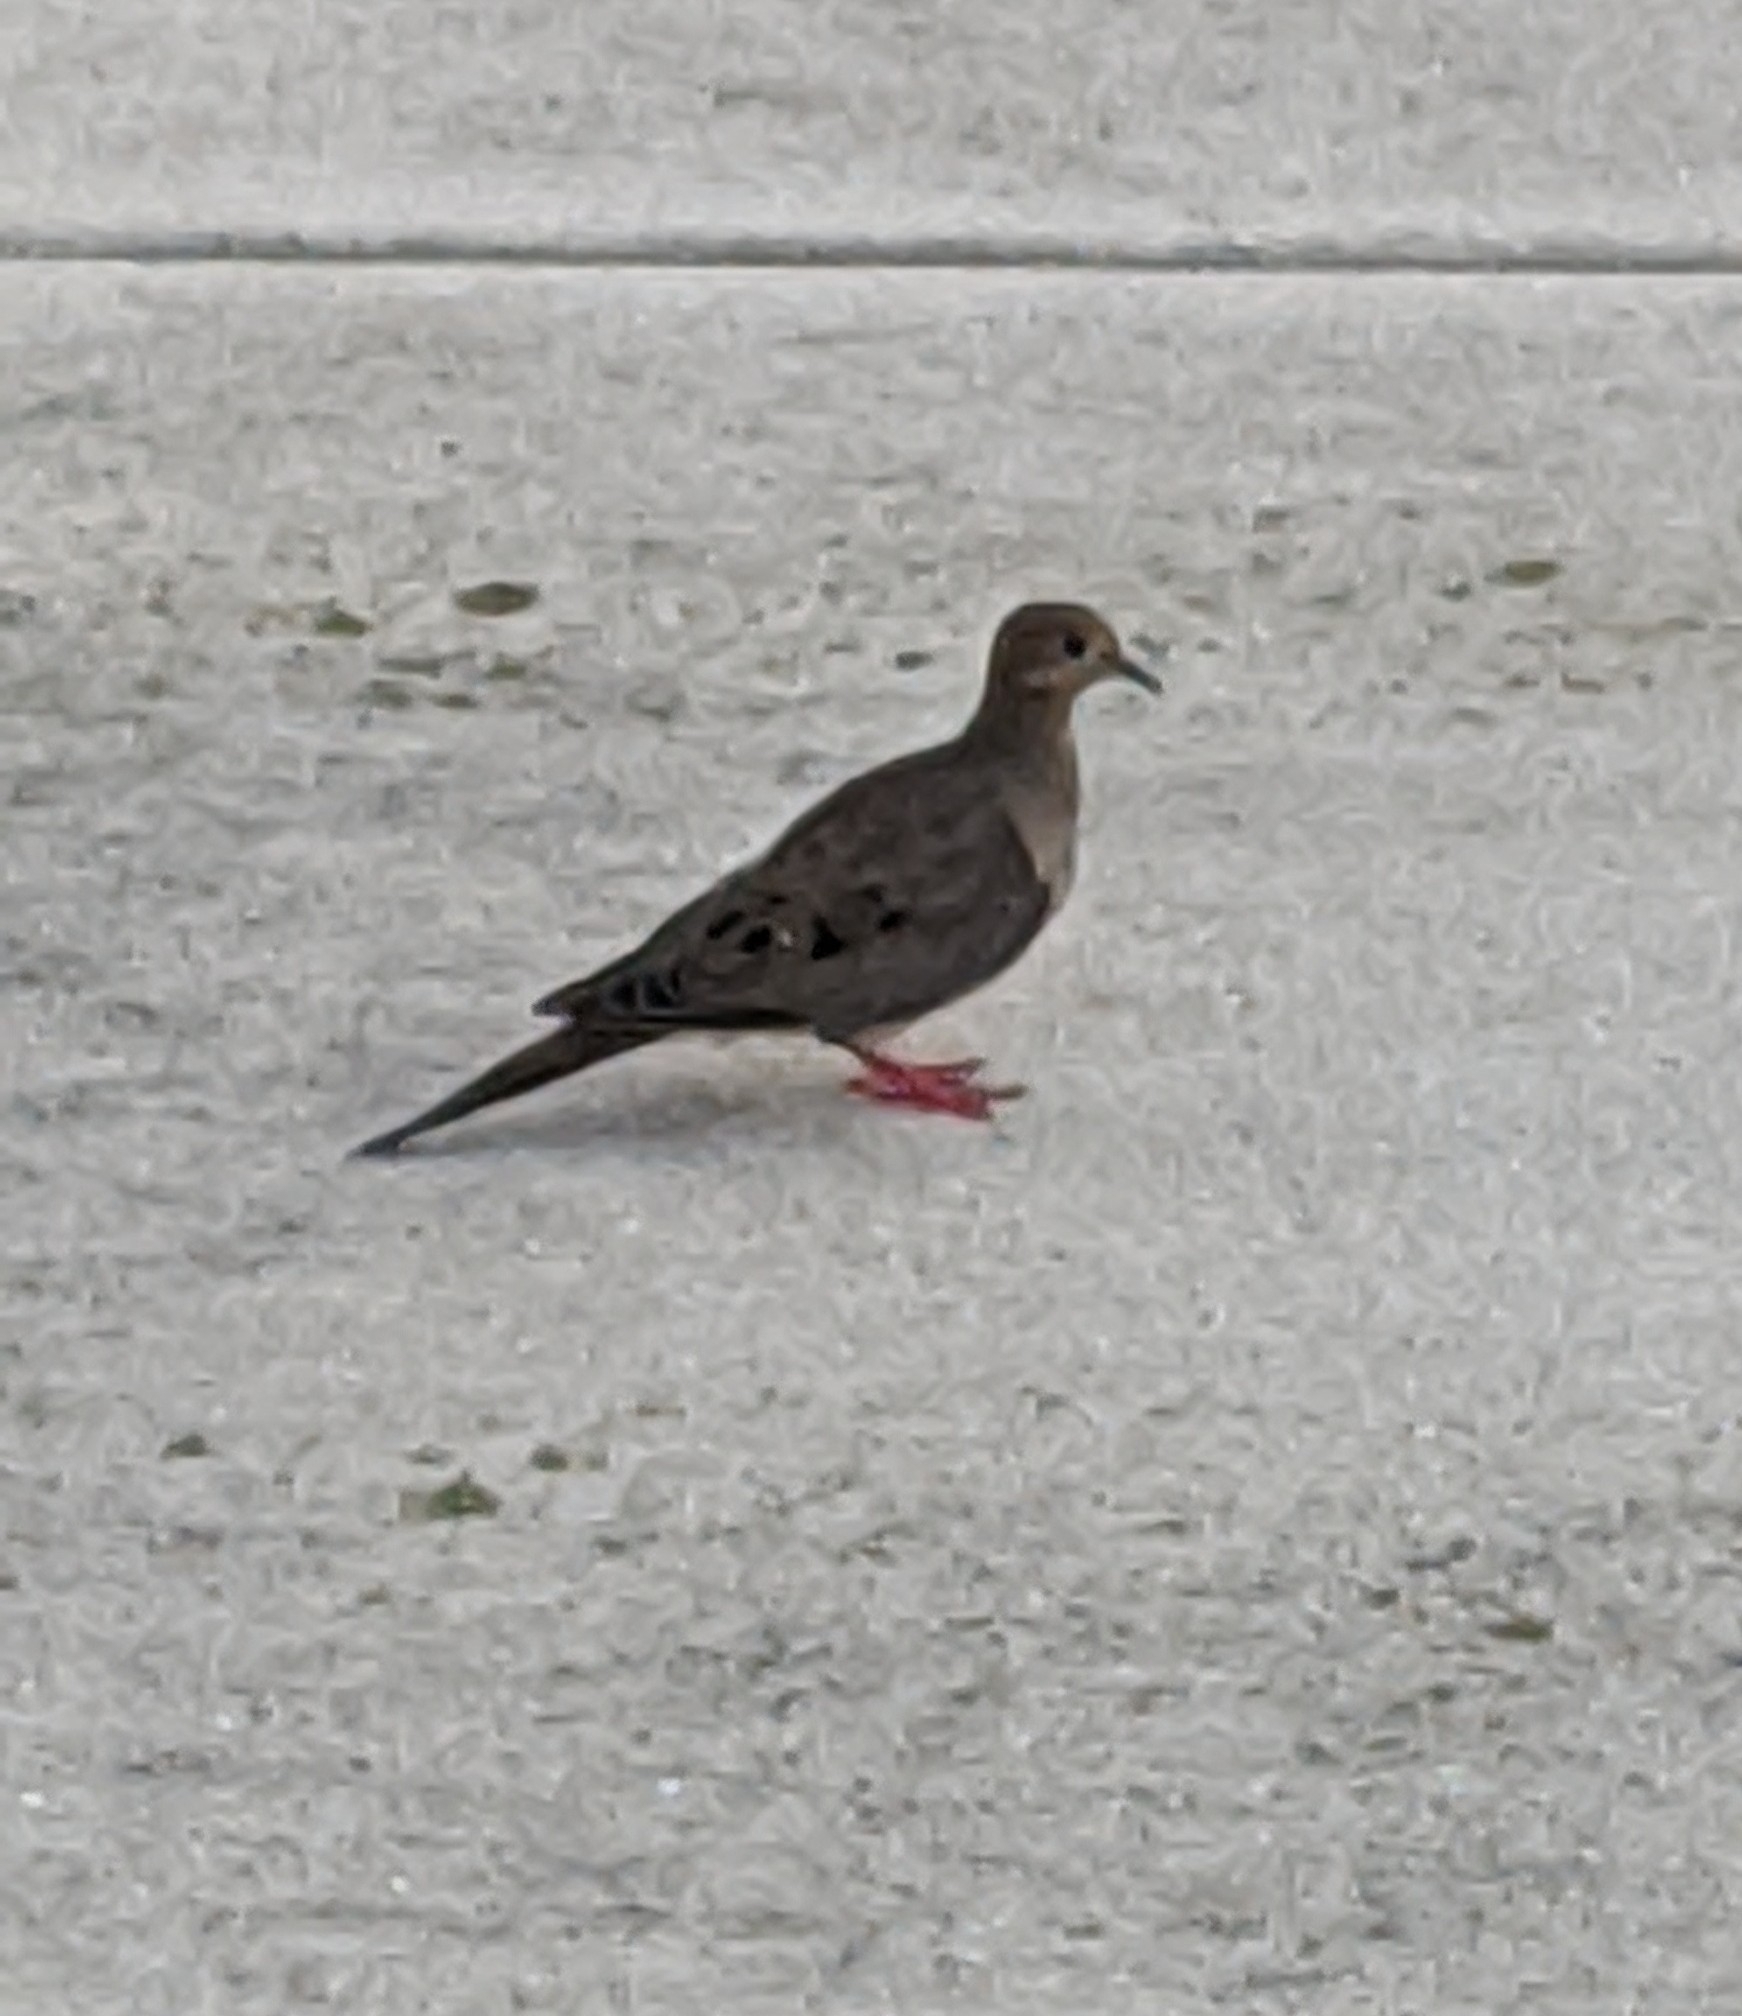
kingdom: Animalia
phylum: Chordata
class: Aves
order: Columbiformes
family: Columbidae
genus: Zenaida
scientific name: Zenaida macroura
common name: Mourning dove
